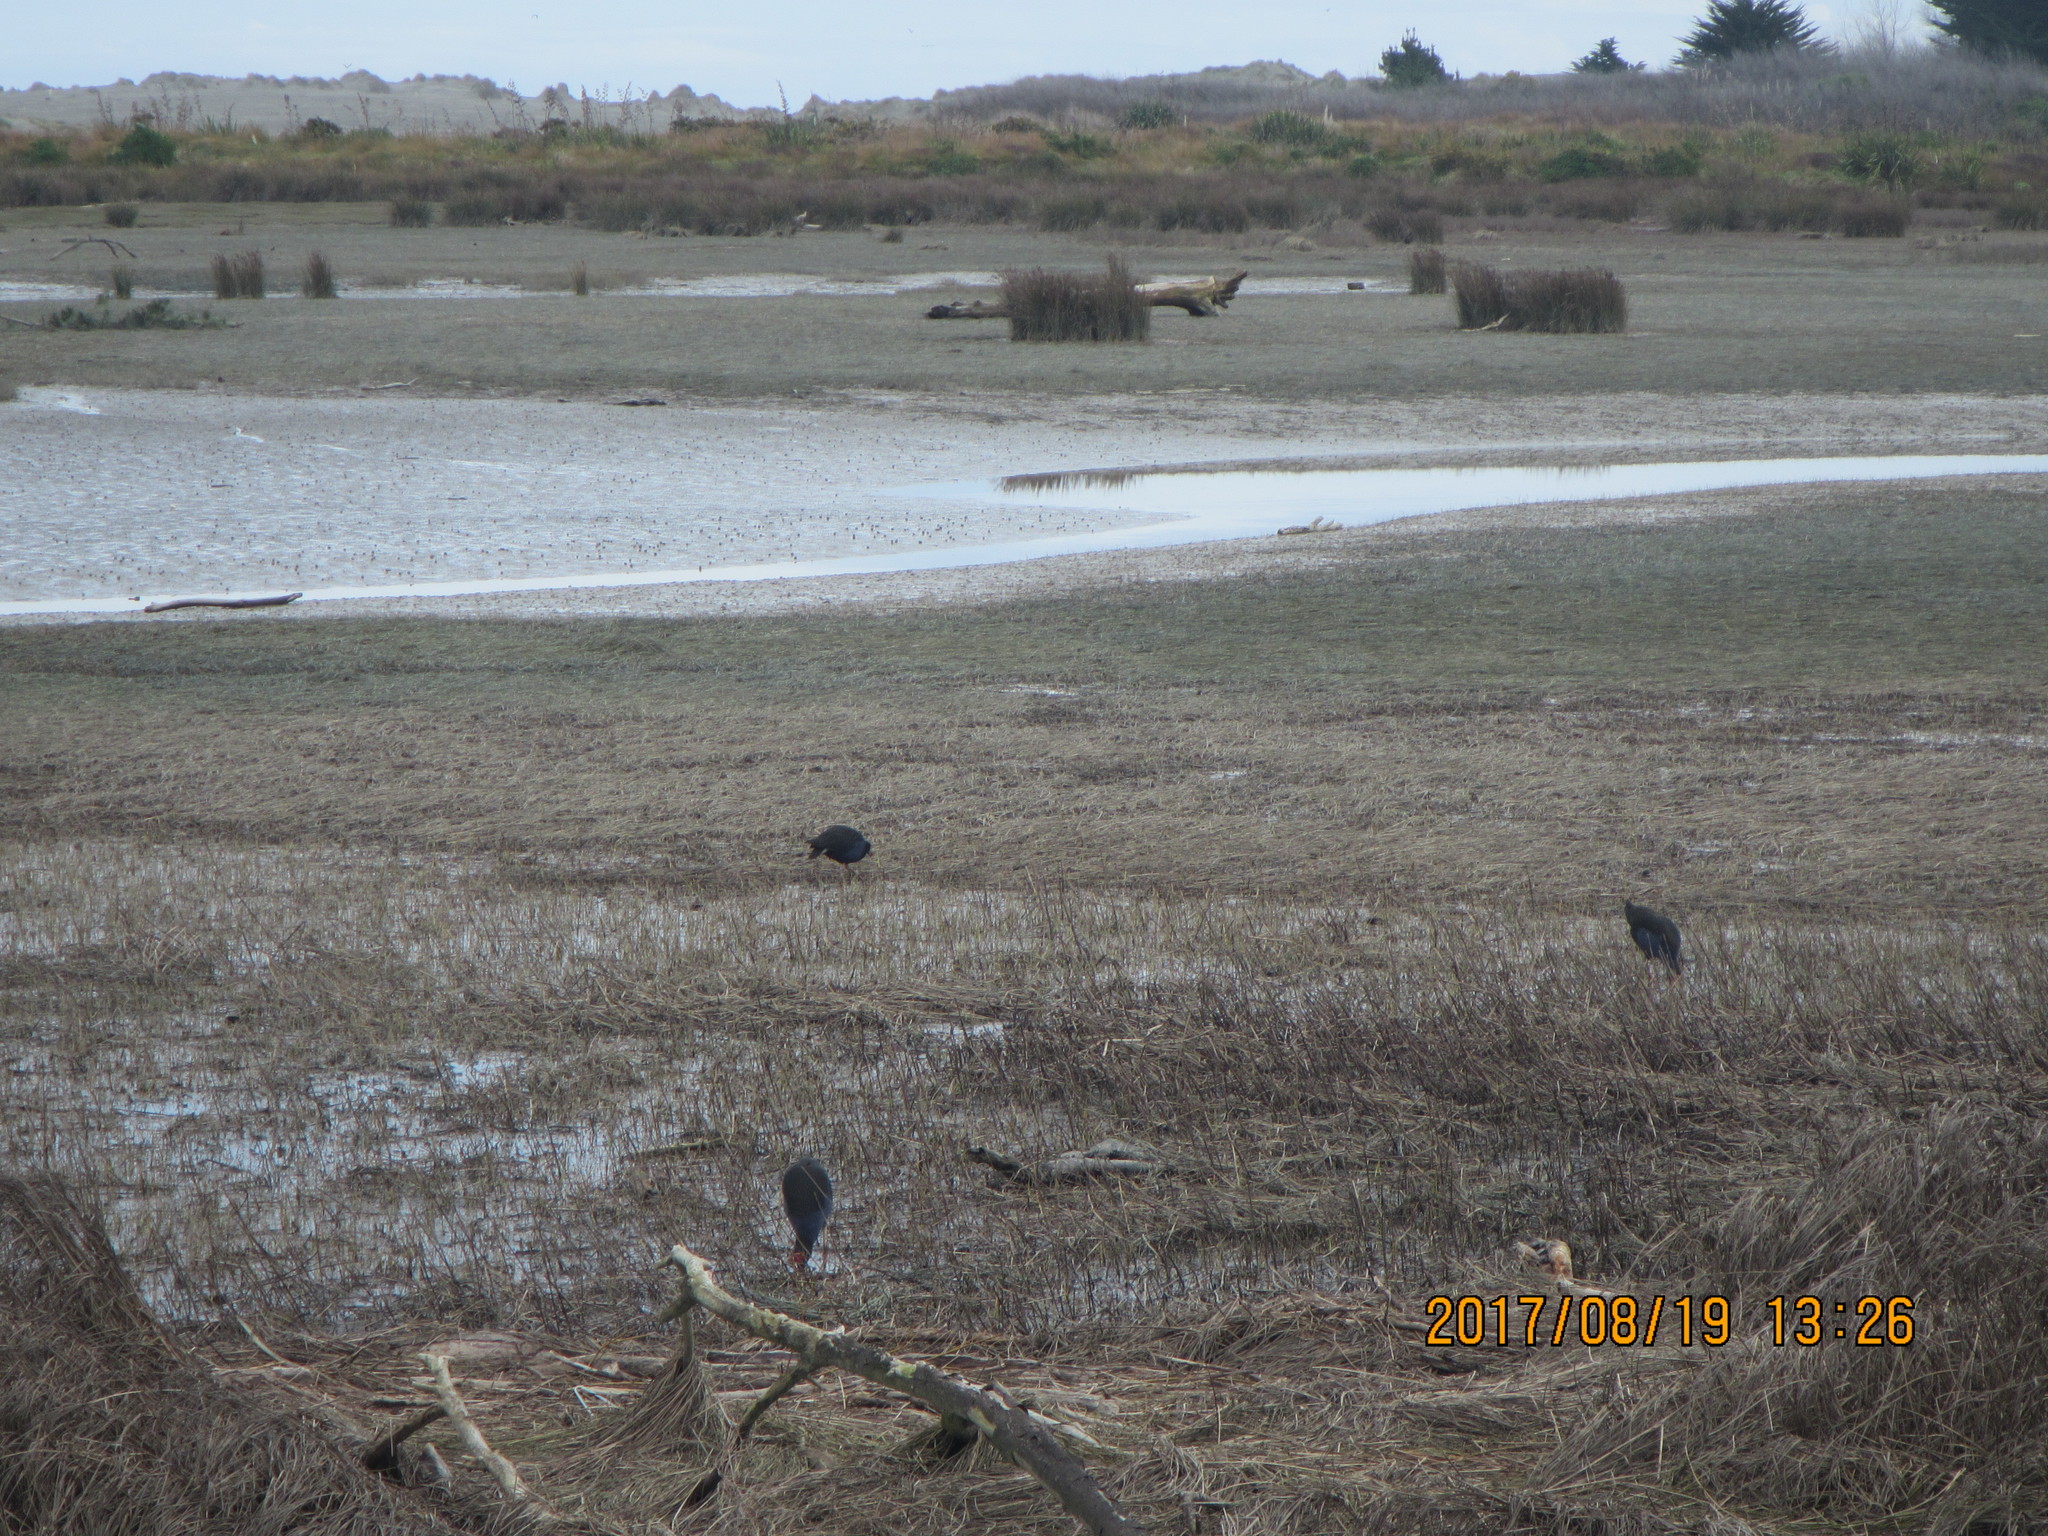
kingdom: Animalia
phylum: Chordata
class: Aves
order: Gruiformes
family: Rallidae
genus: Porphyrio
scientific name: Porphyrio melanotus
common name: Australasian swamphen
